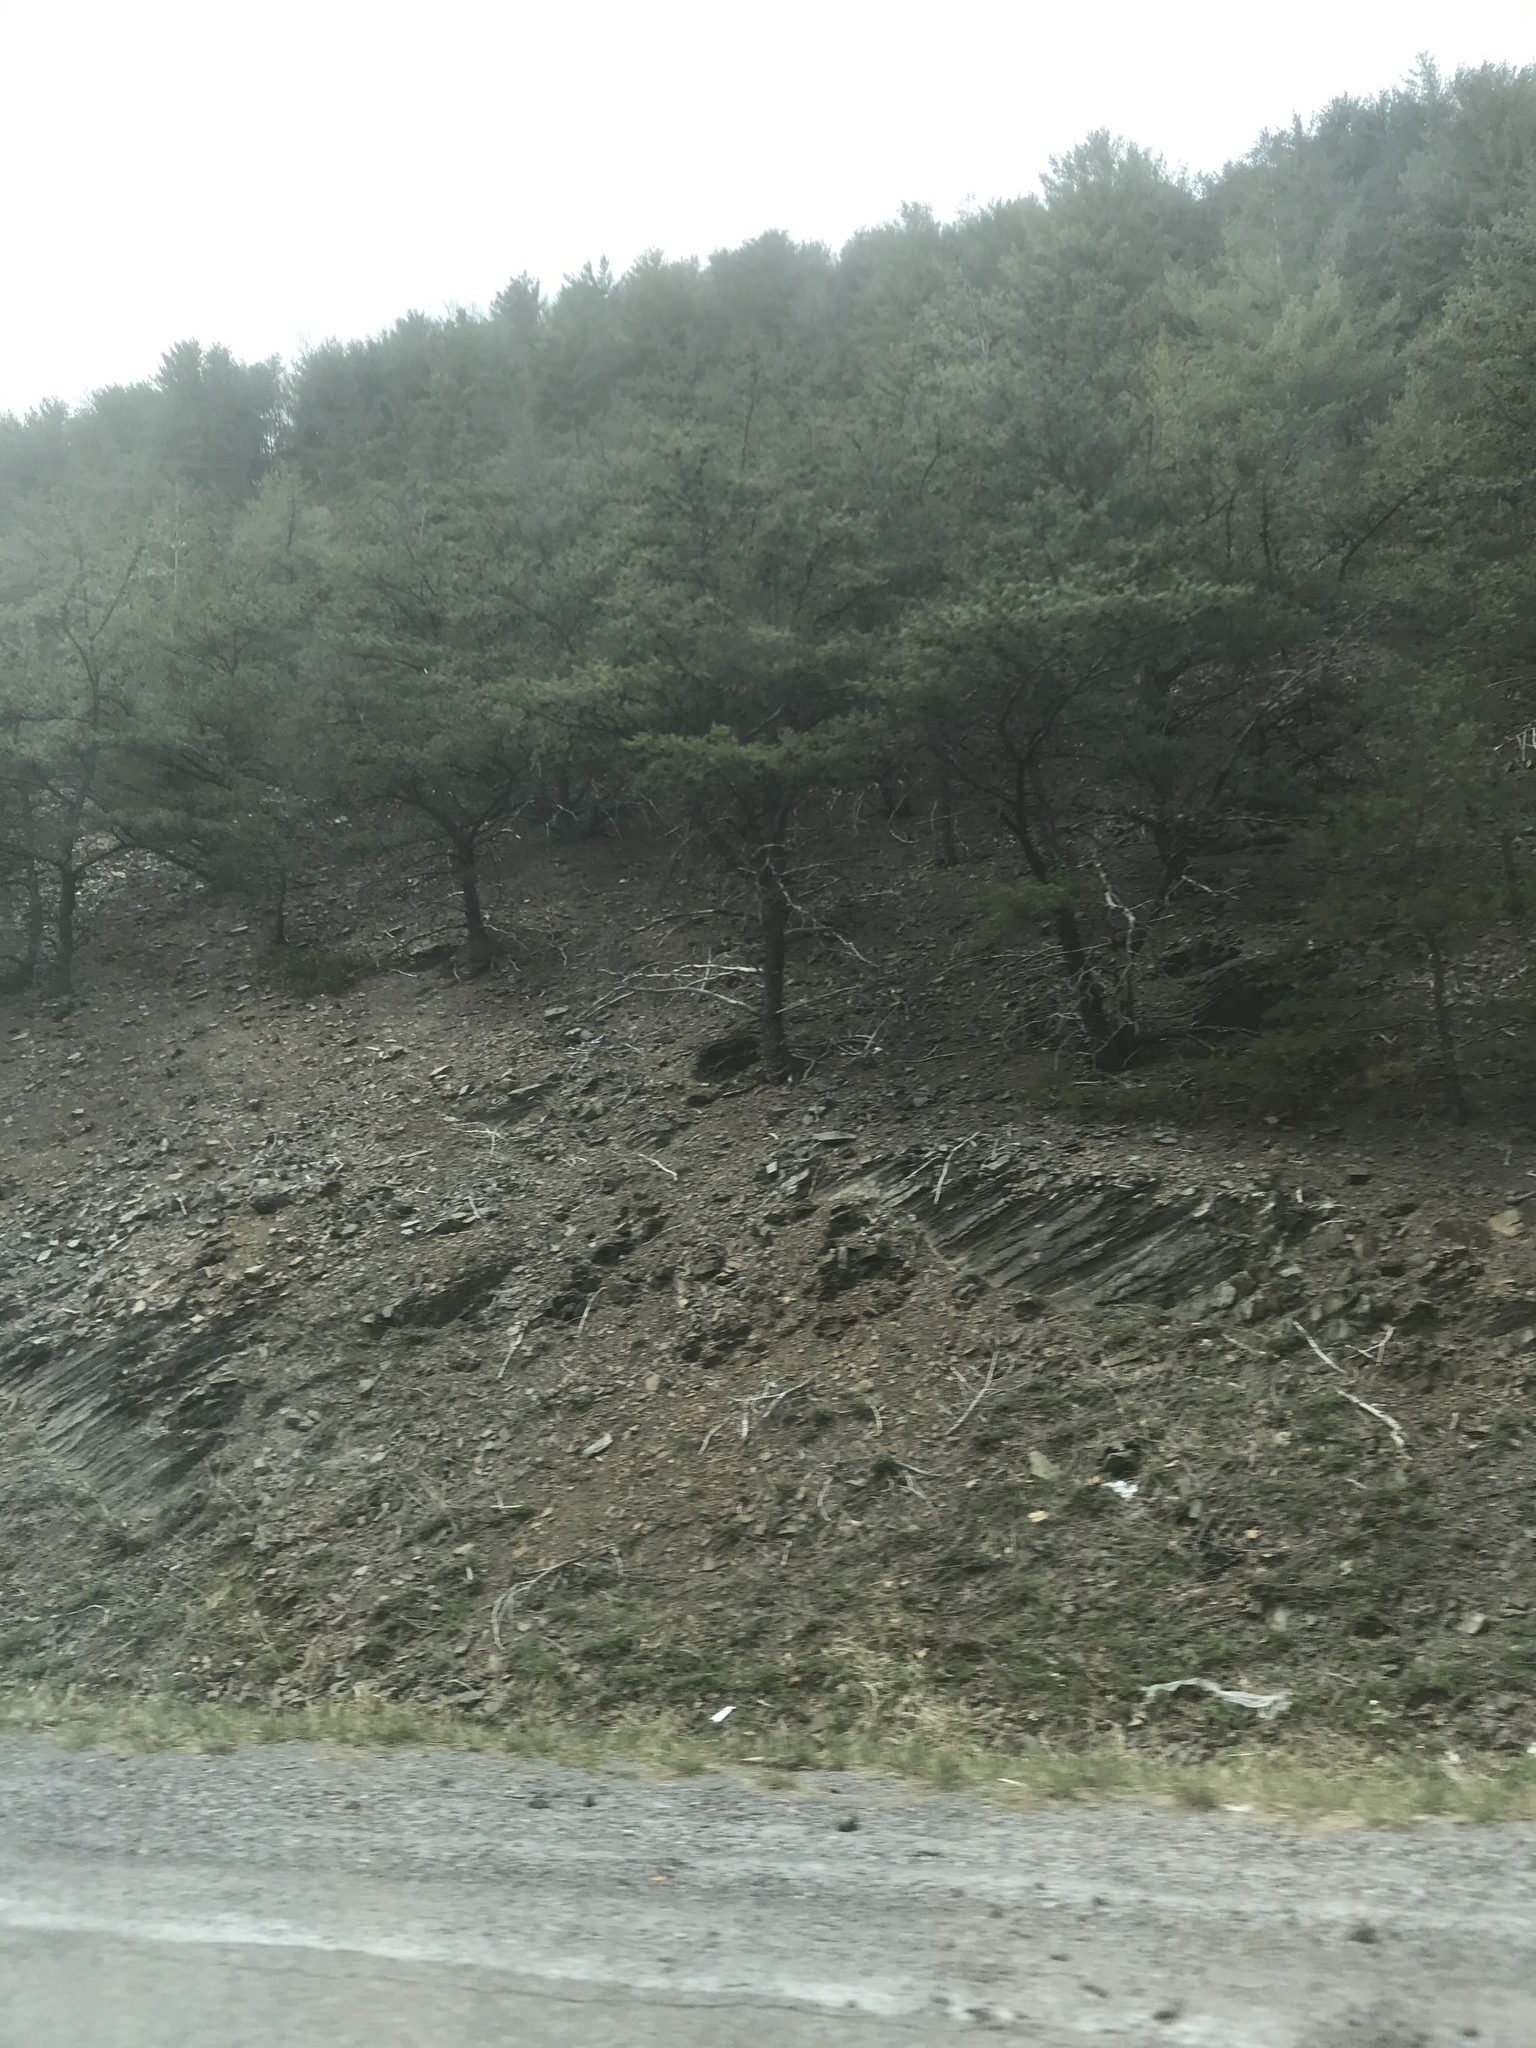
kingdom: Plantae
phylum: Tracheophyta
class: Pinopsida
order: Pinales
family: Pinaceae
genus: Pinus
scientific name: Pinus pungens
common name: Hickory pine
